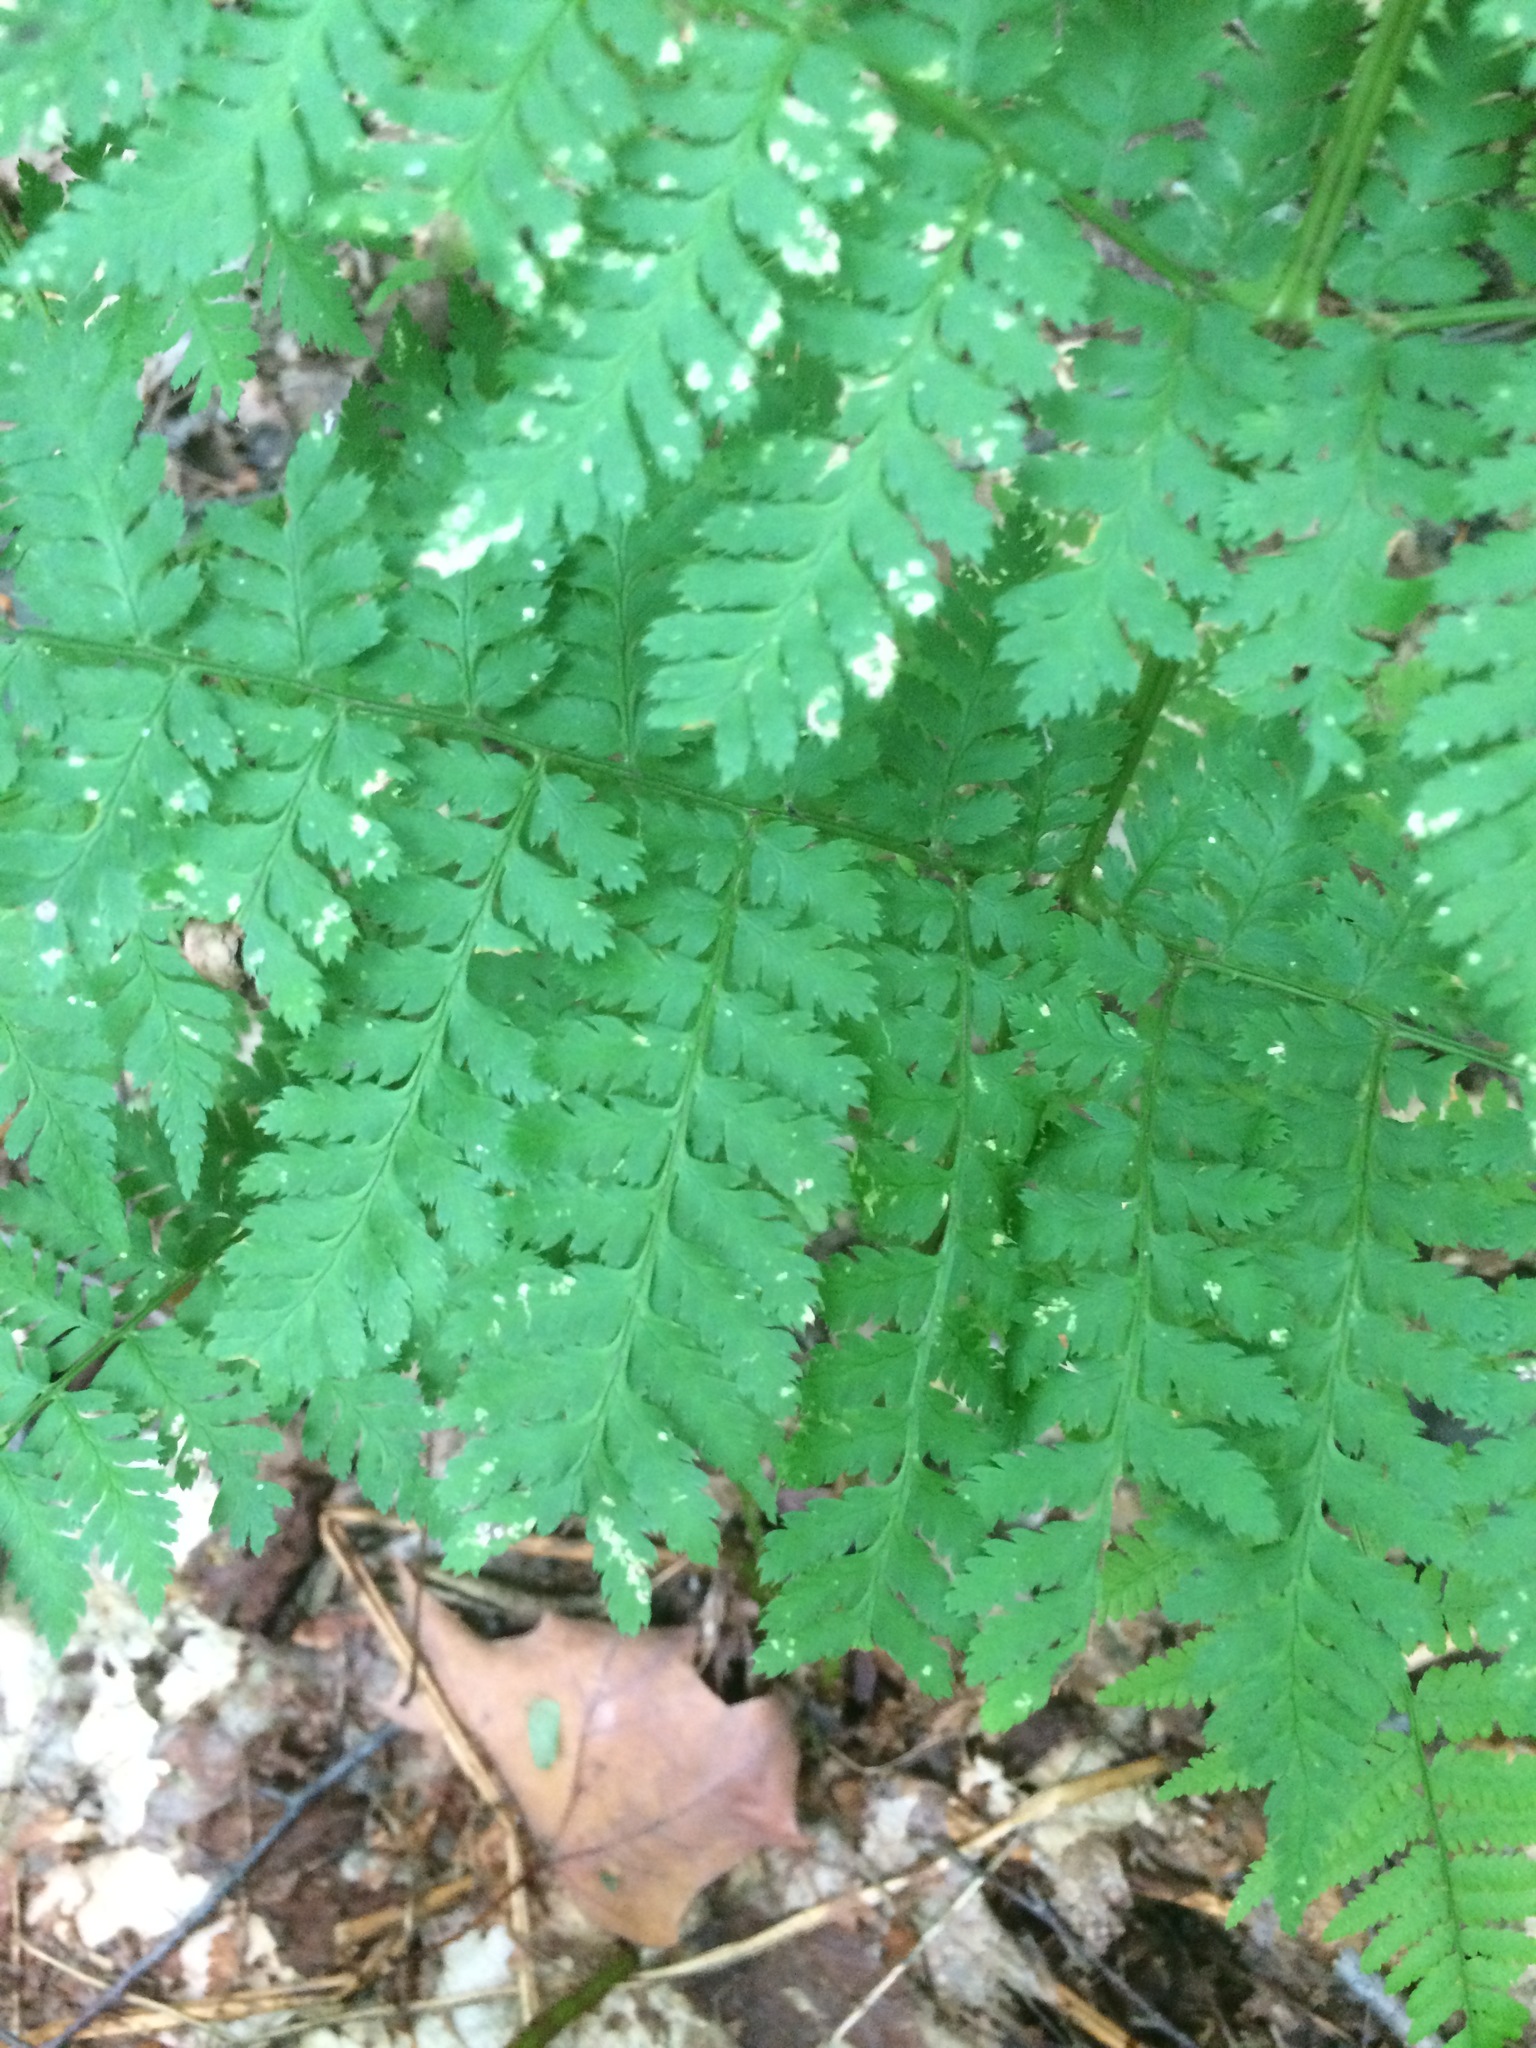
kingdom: Plantae
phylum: Tracheophyta
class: Polypodiopsida
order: Polypodiales
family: Dryopteridaceae
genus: Dryopteris
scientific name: Dryopteris campyloptera
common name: Mountain wood fern
